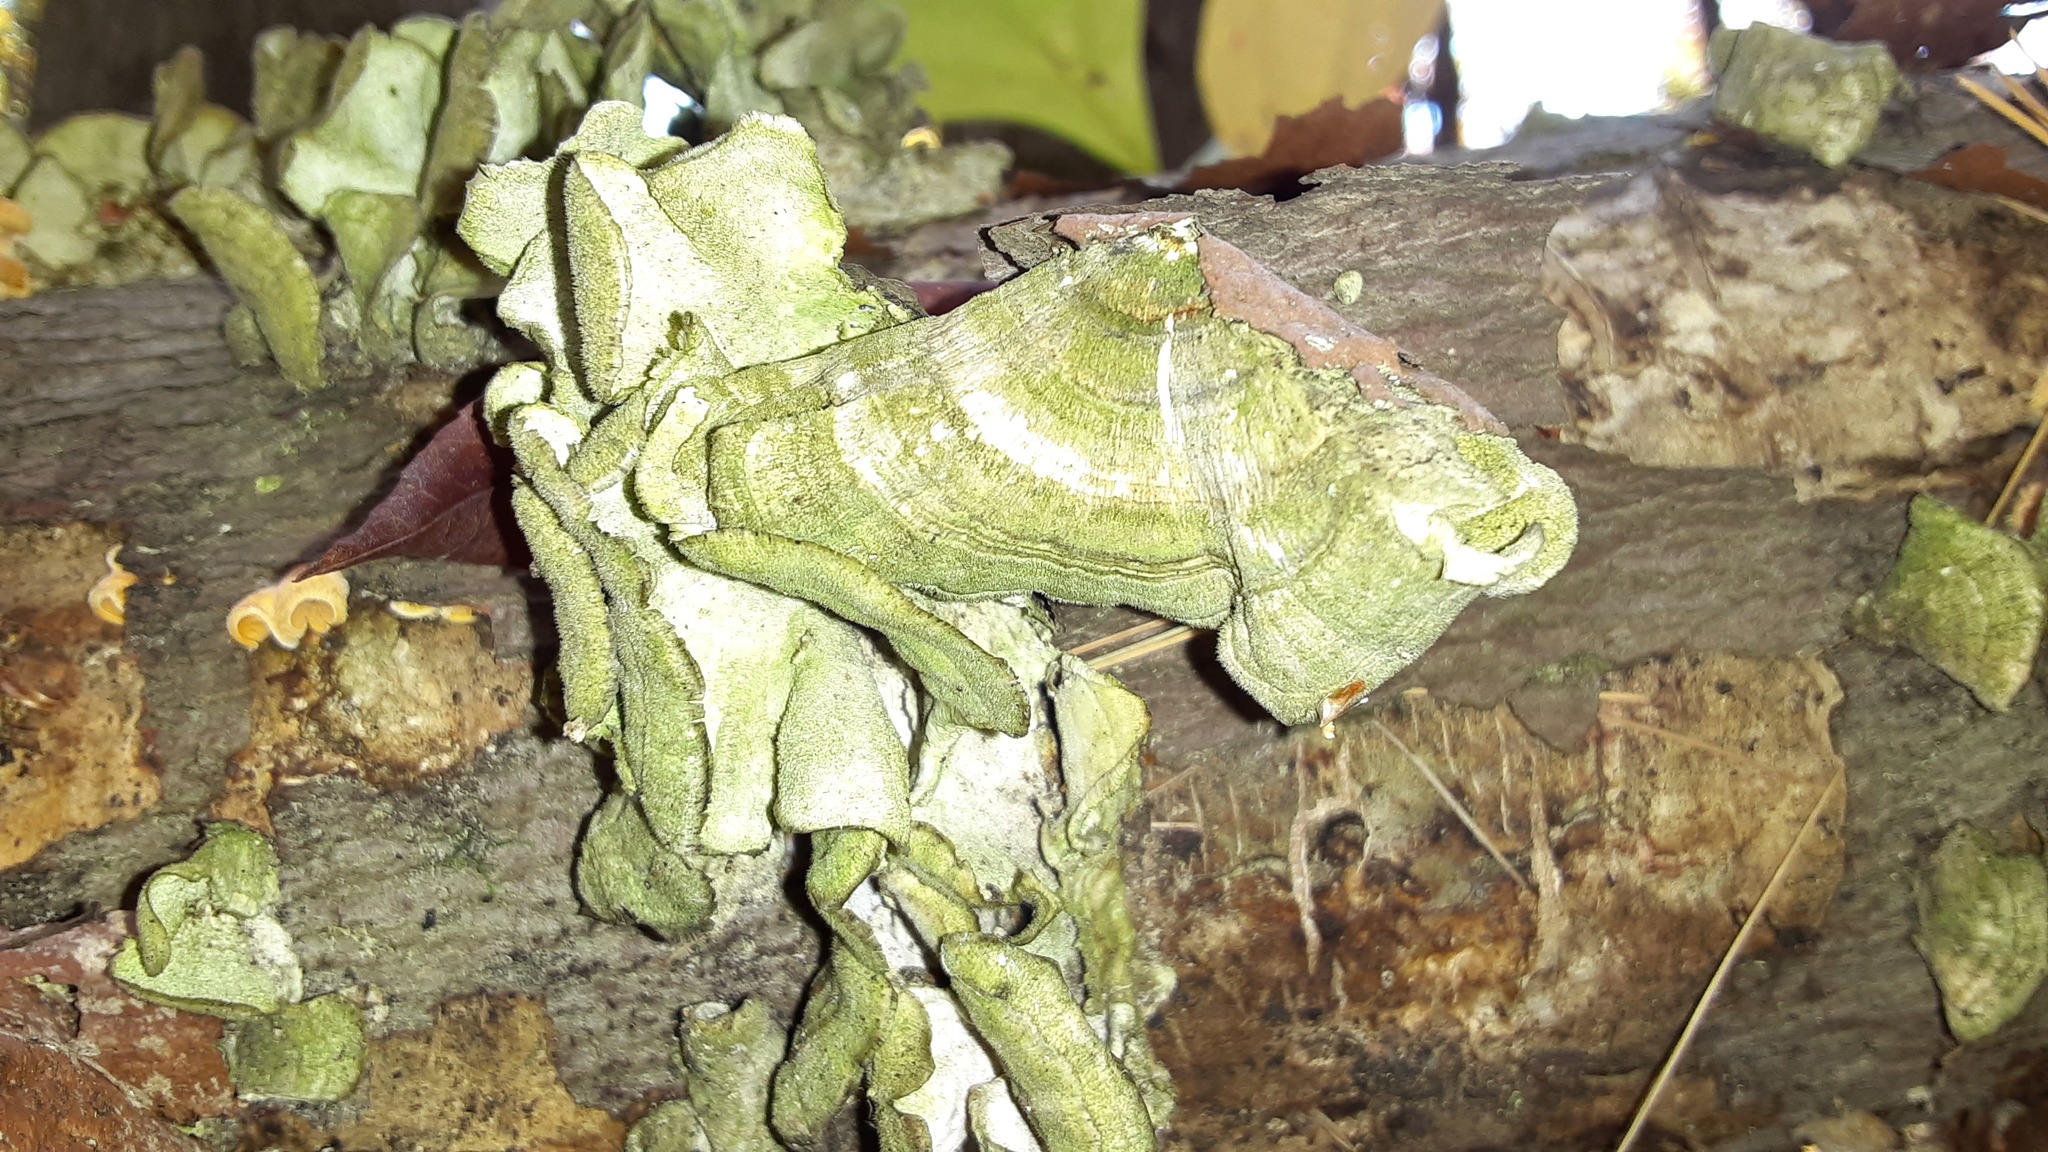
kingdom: Fungi
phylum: Basidiomycota
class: Agaricomycetes
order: Hymenochaetales
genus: Trichaptum
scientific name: Trichaptum biforme
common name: Violet-toothed polypore
